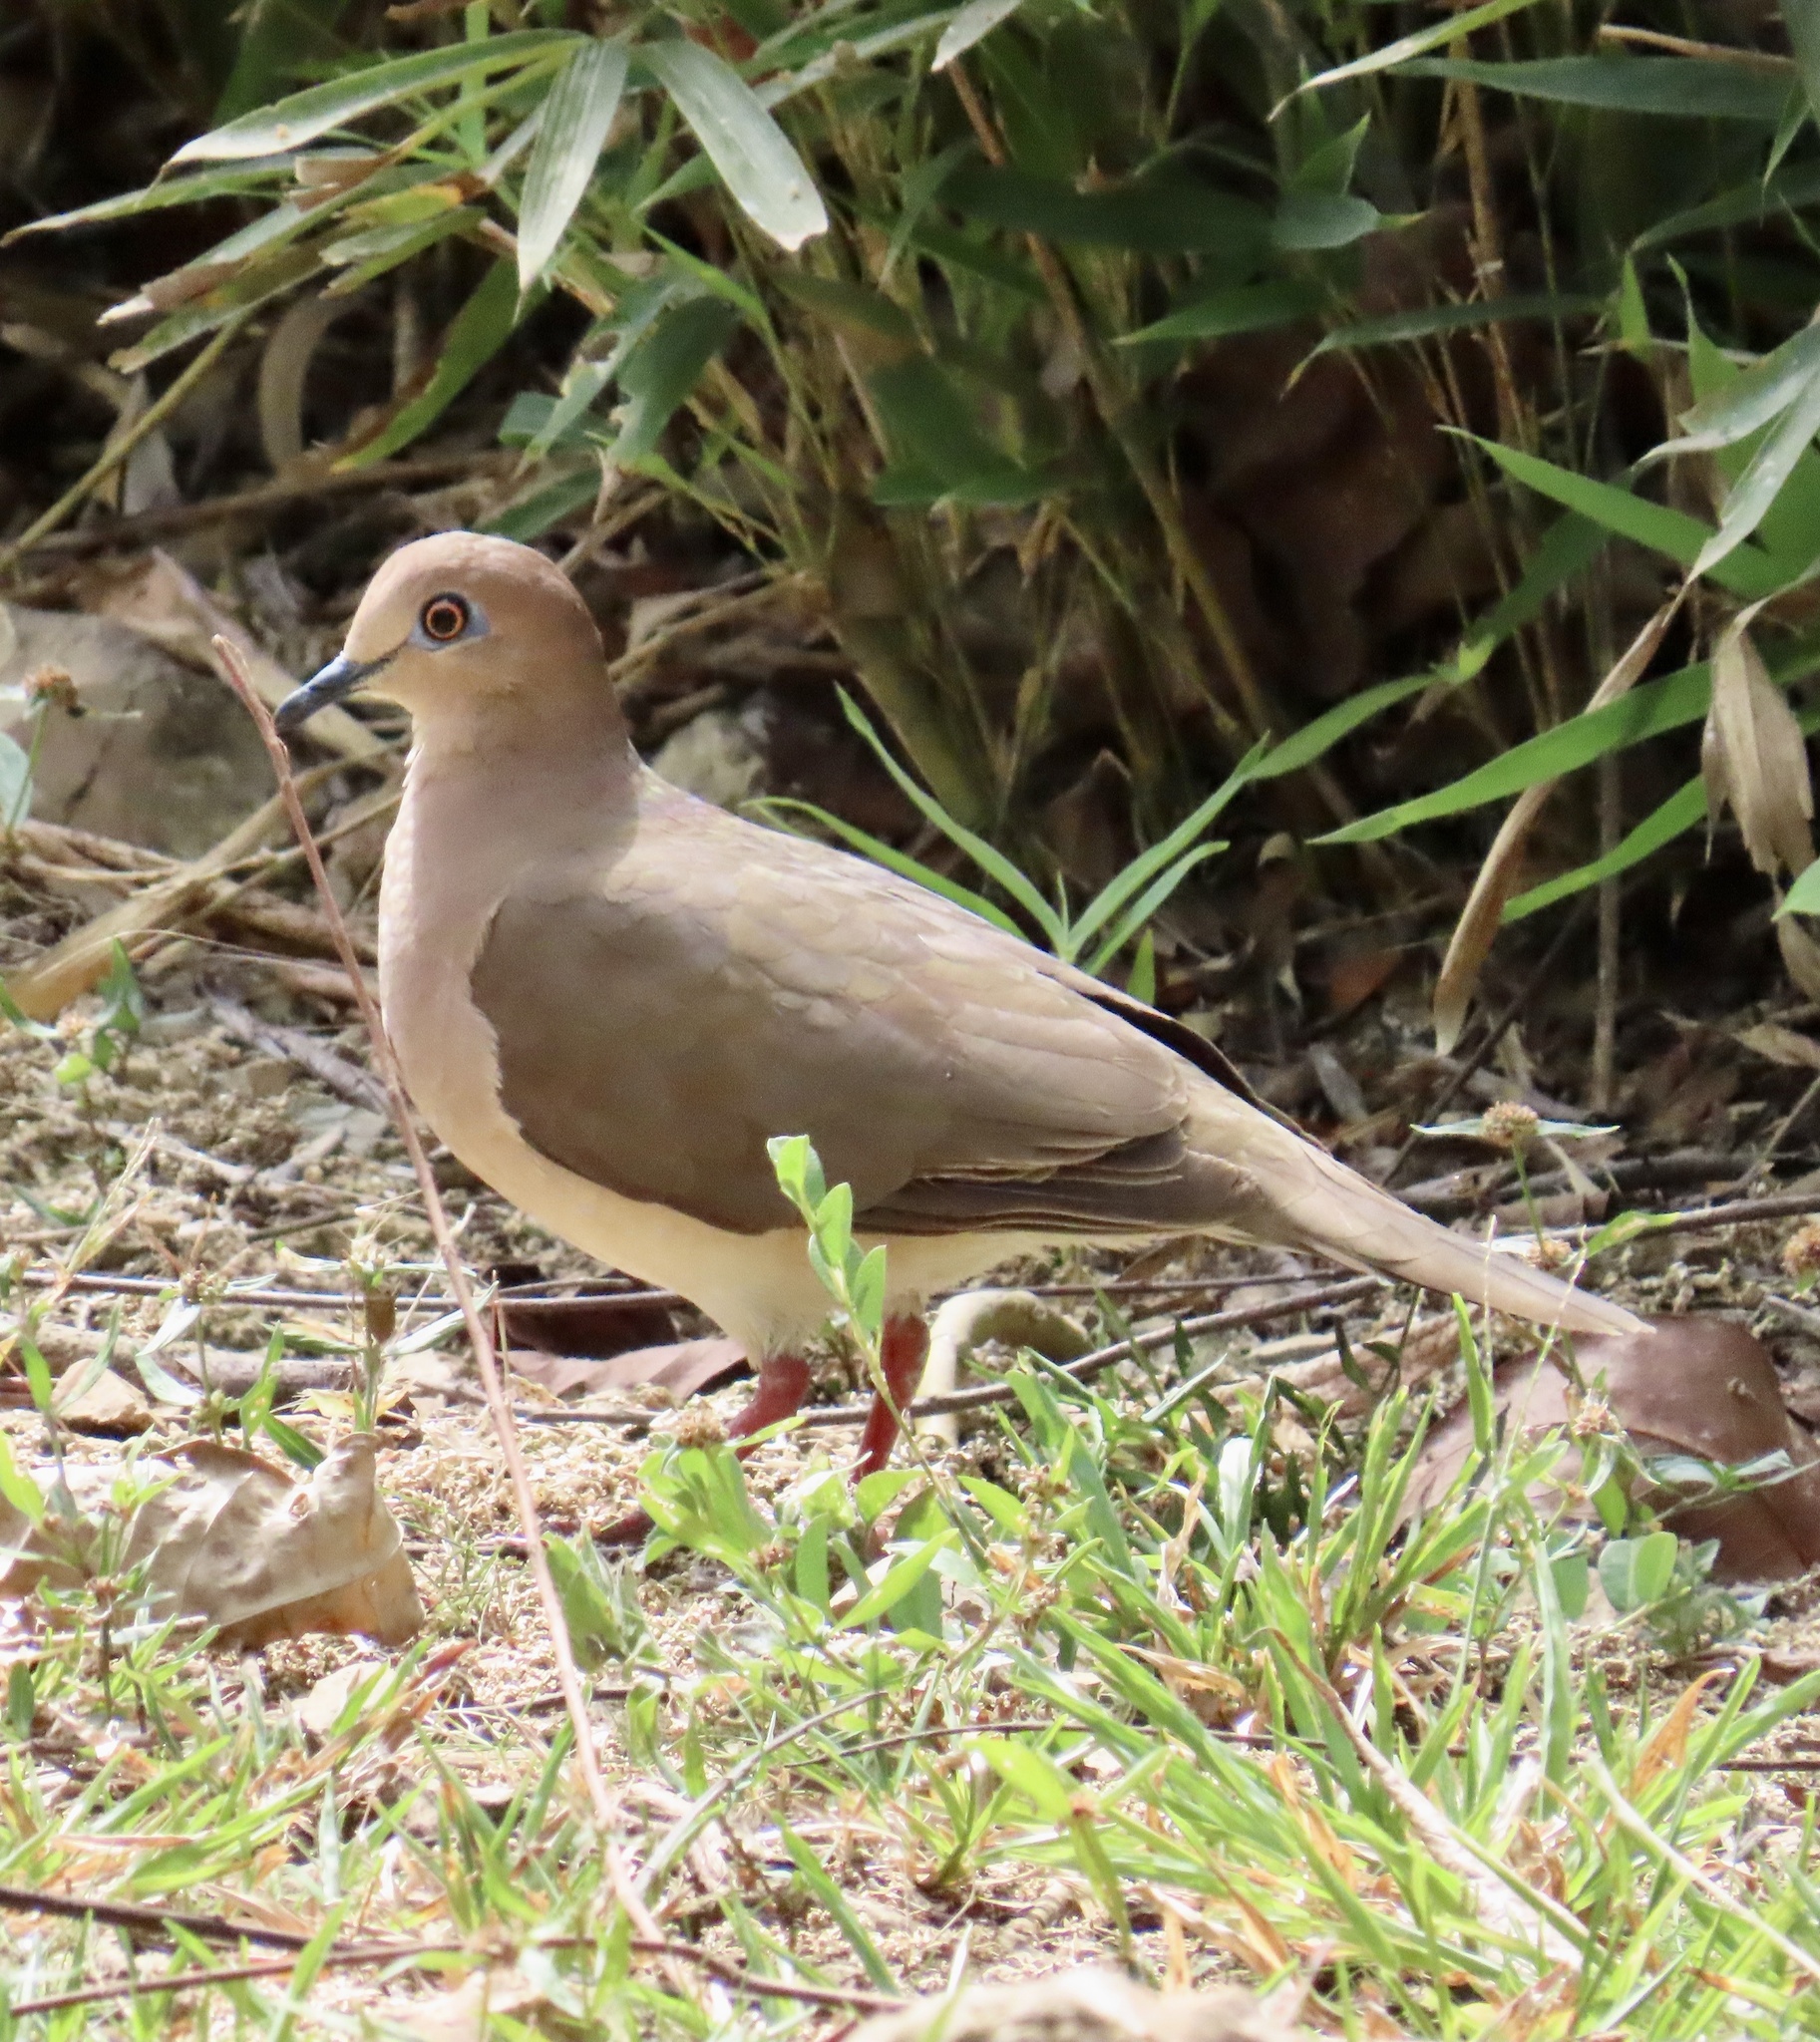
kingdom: Animalia
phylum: Chordata
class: Aves
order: Columbiformes
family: Columbidae
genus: Leptotila
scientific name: Leptotila verreauxi
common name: White-tipped dove
